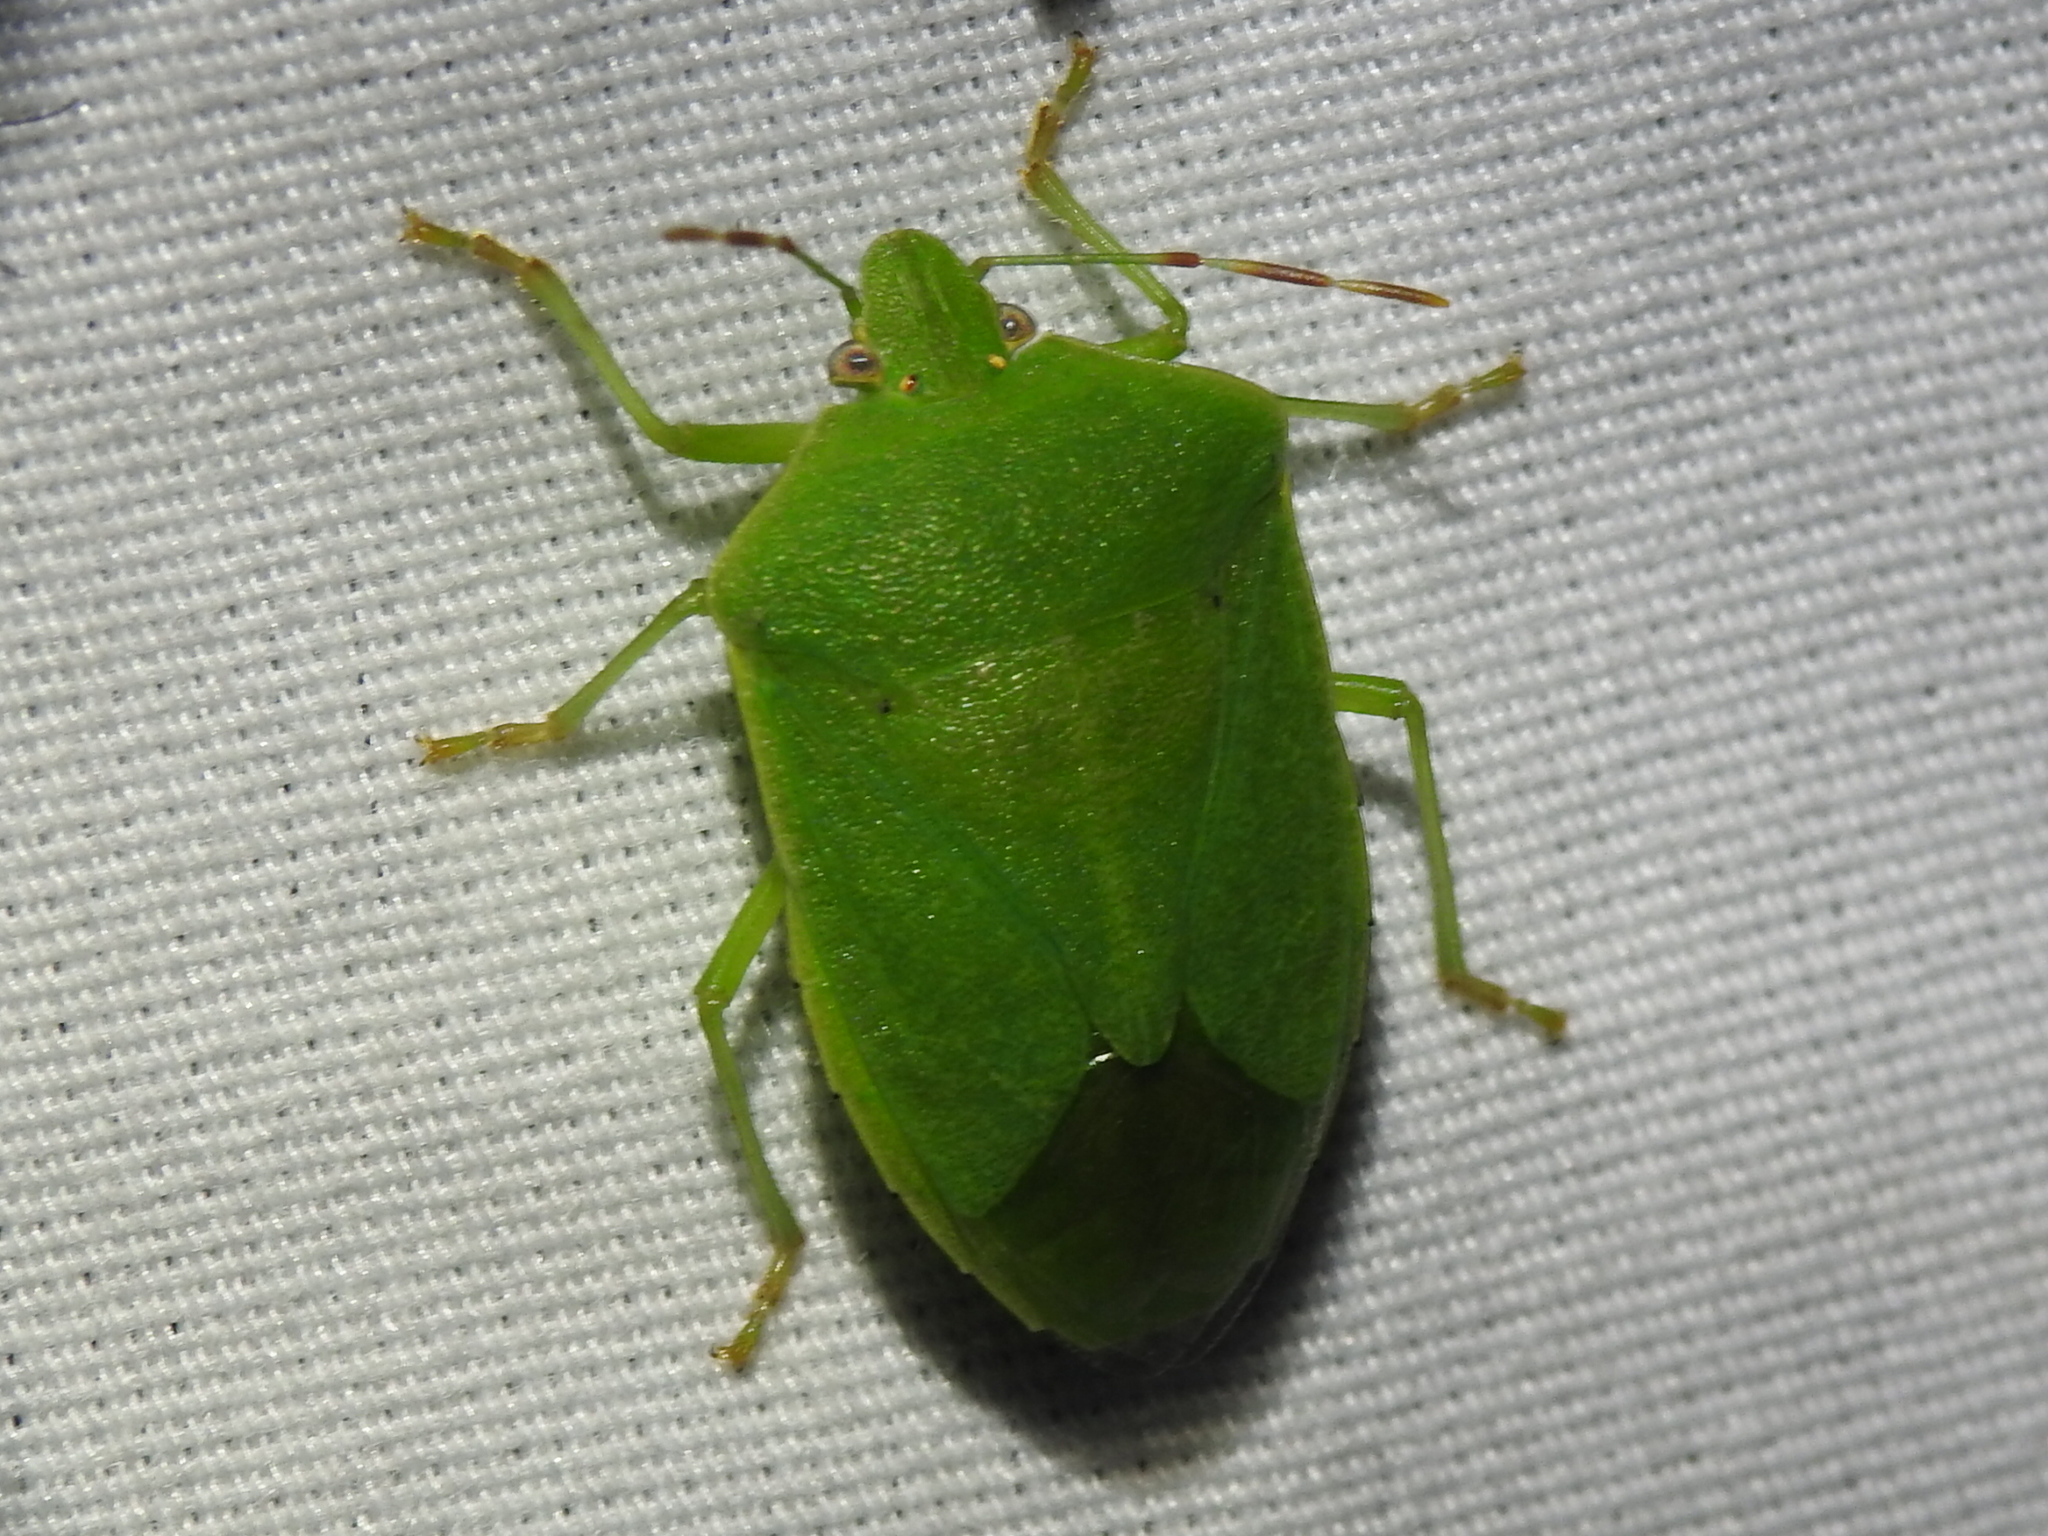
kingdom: Animalia
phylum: Arthropoda
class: Insecta
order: Hemiptera
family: Pentatomidae
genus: Nezara
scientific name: Nezara viridula
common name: Southern green stink bug
